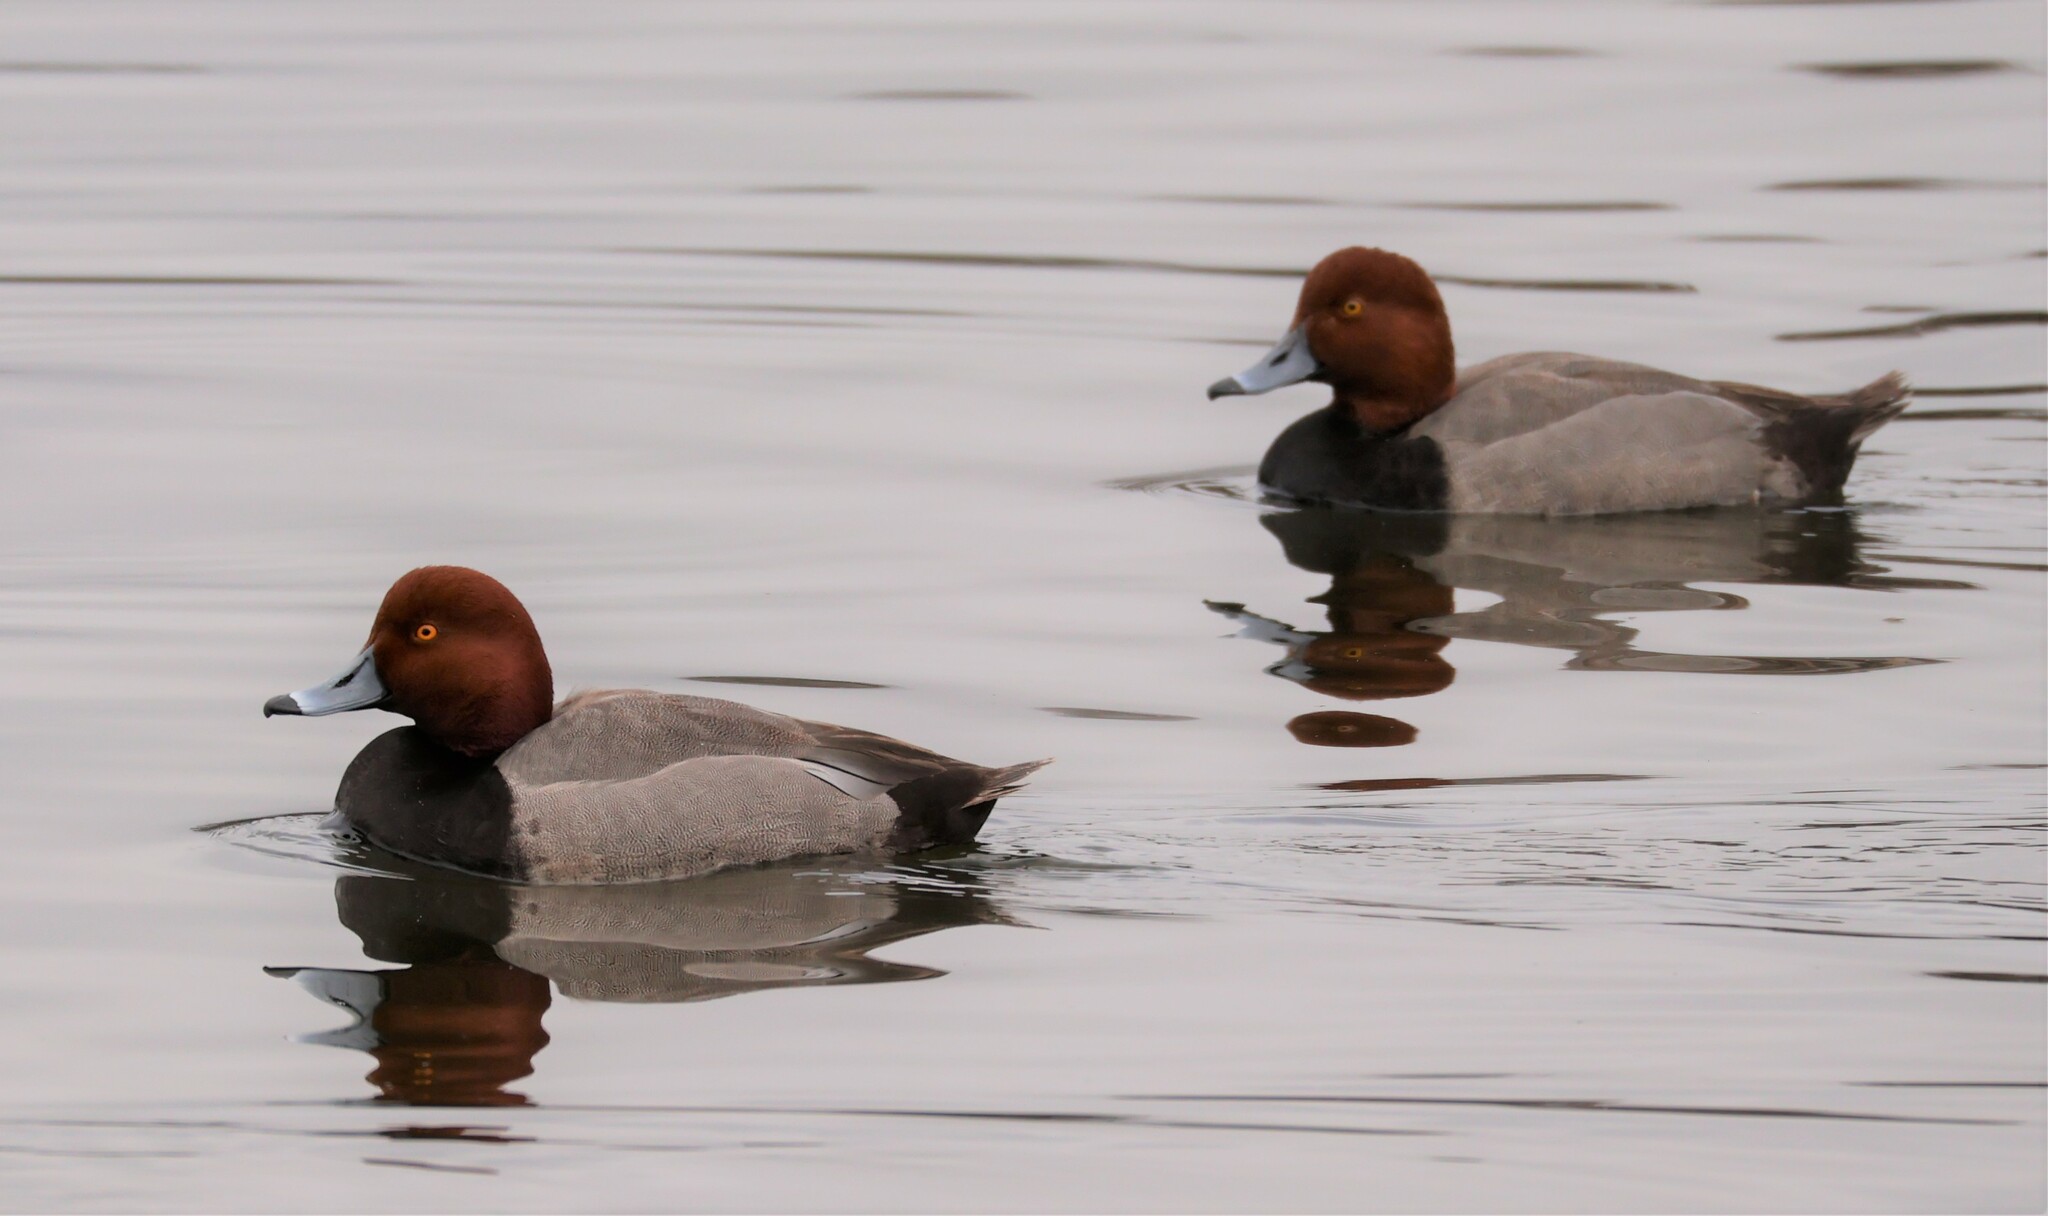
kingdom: Animalia
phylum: Chordata
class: Aves
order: Anseriformes
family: Anatidae
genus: Aythya
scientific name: Aythya americana
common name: Redhead
